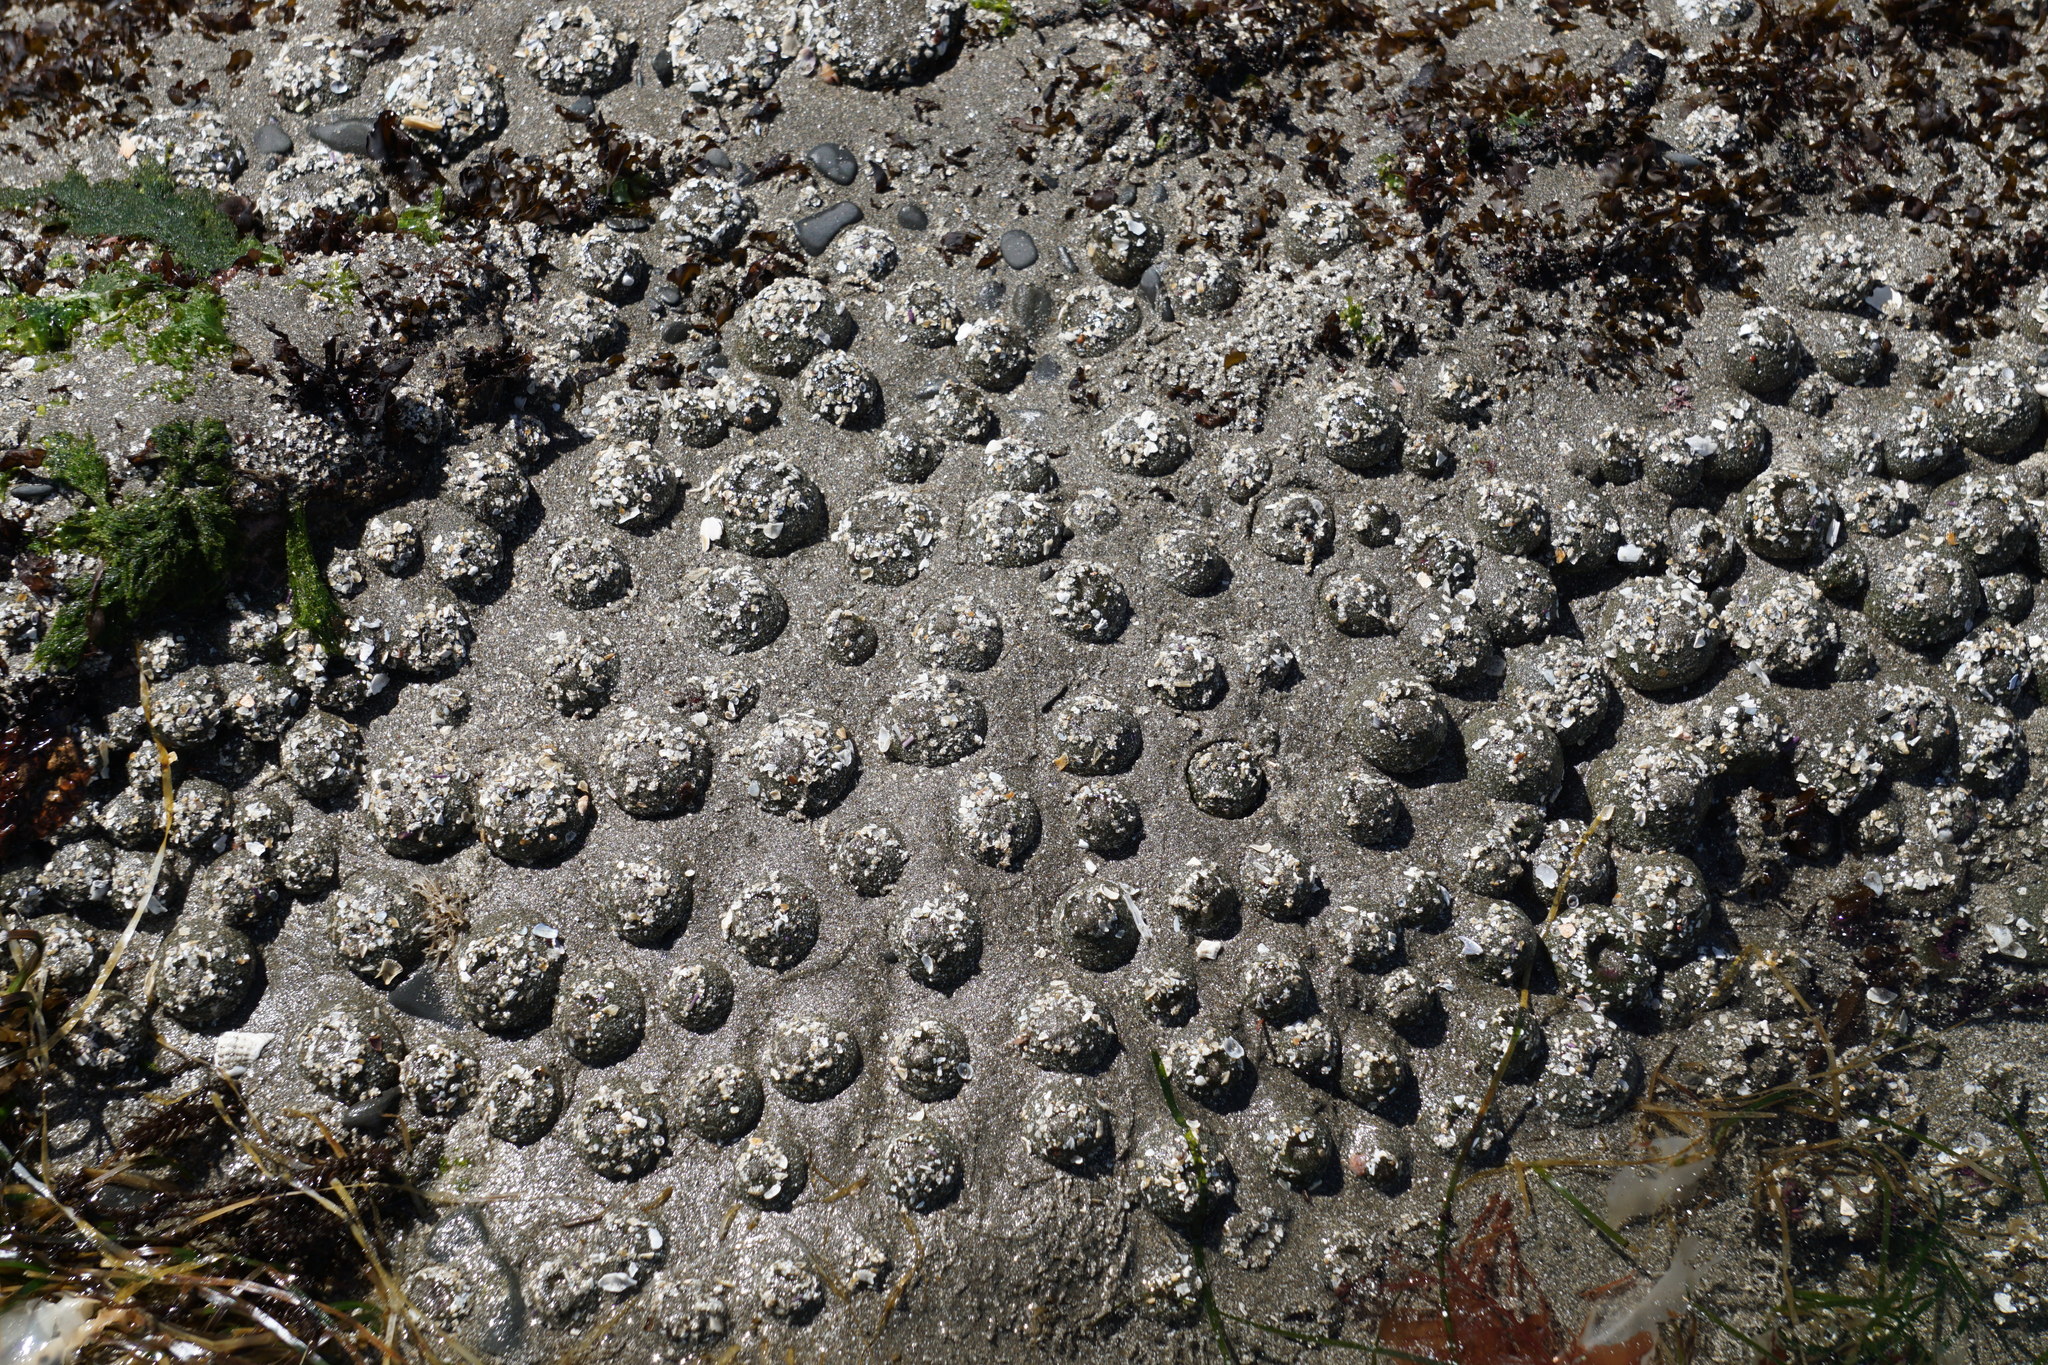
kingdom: Animalia
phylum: Cnidaria
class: Anthozoa
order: Actiniaria
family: Actiniidae
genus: Anthopleura
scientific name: Anthopleura elegantissima
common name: Clonal anemone
